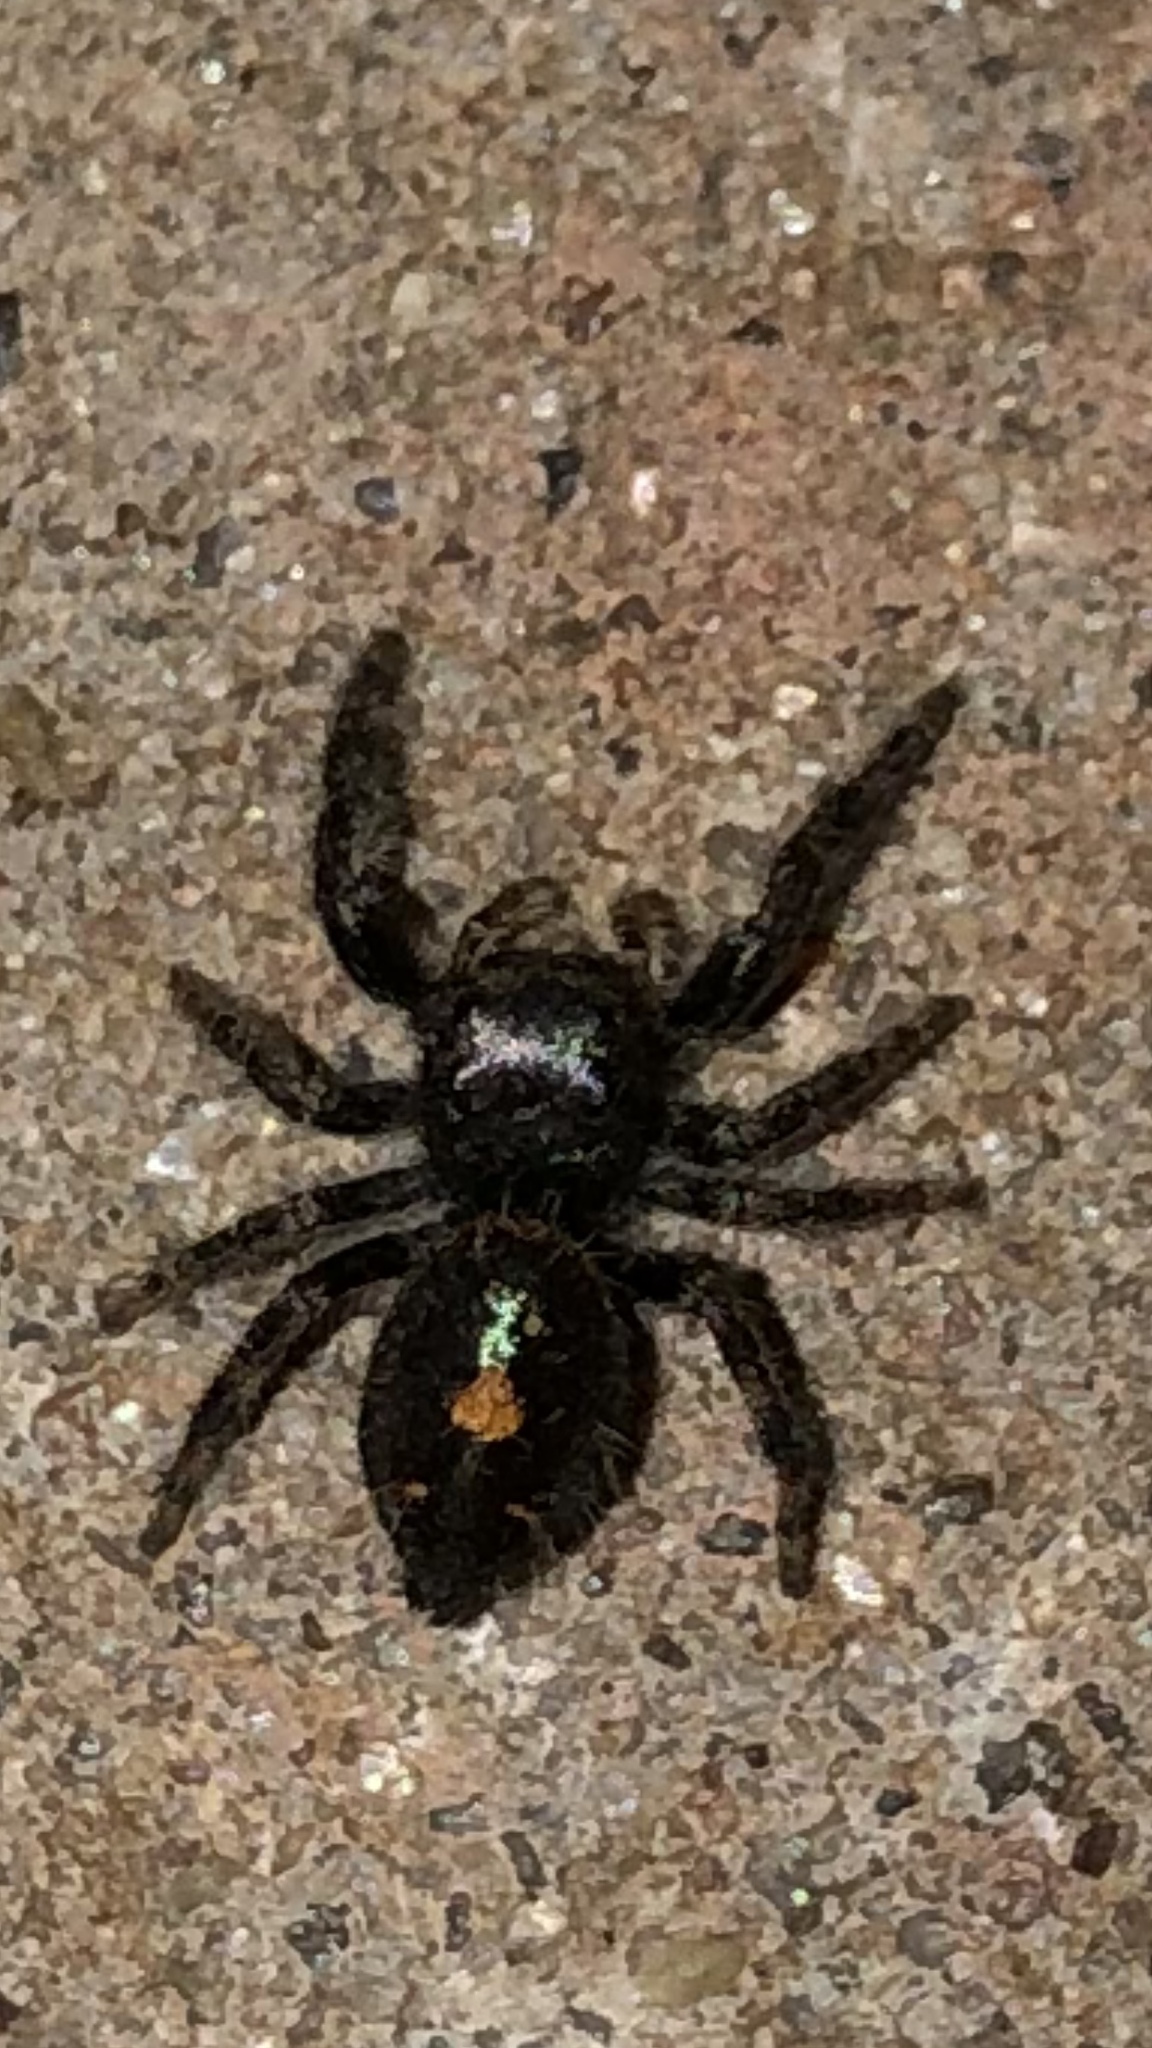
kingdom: Animalia
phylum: Arthropoda
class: Arachnida
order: Araneae
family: Salticidae
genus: Phidippus
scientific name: Phidippus audax
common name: Bold jumper
